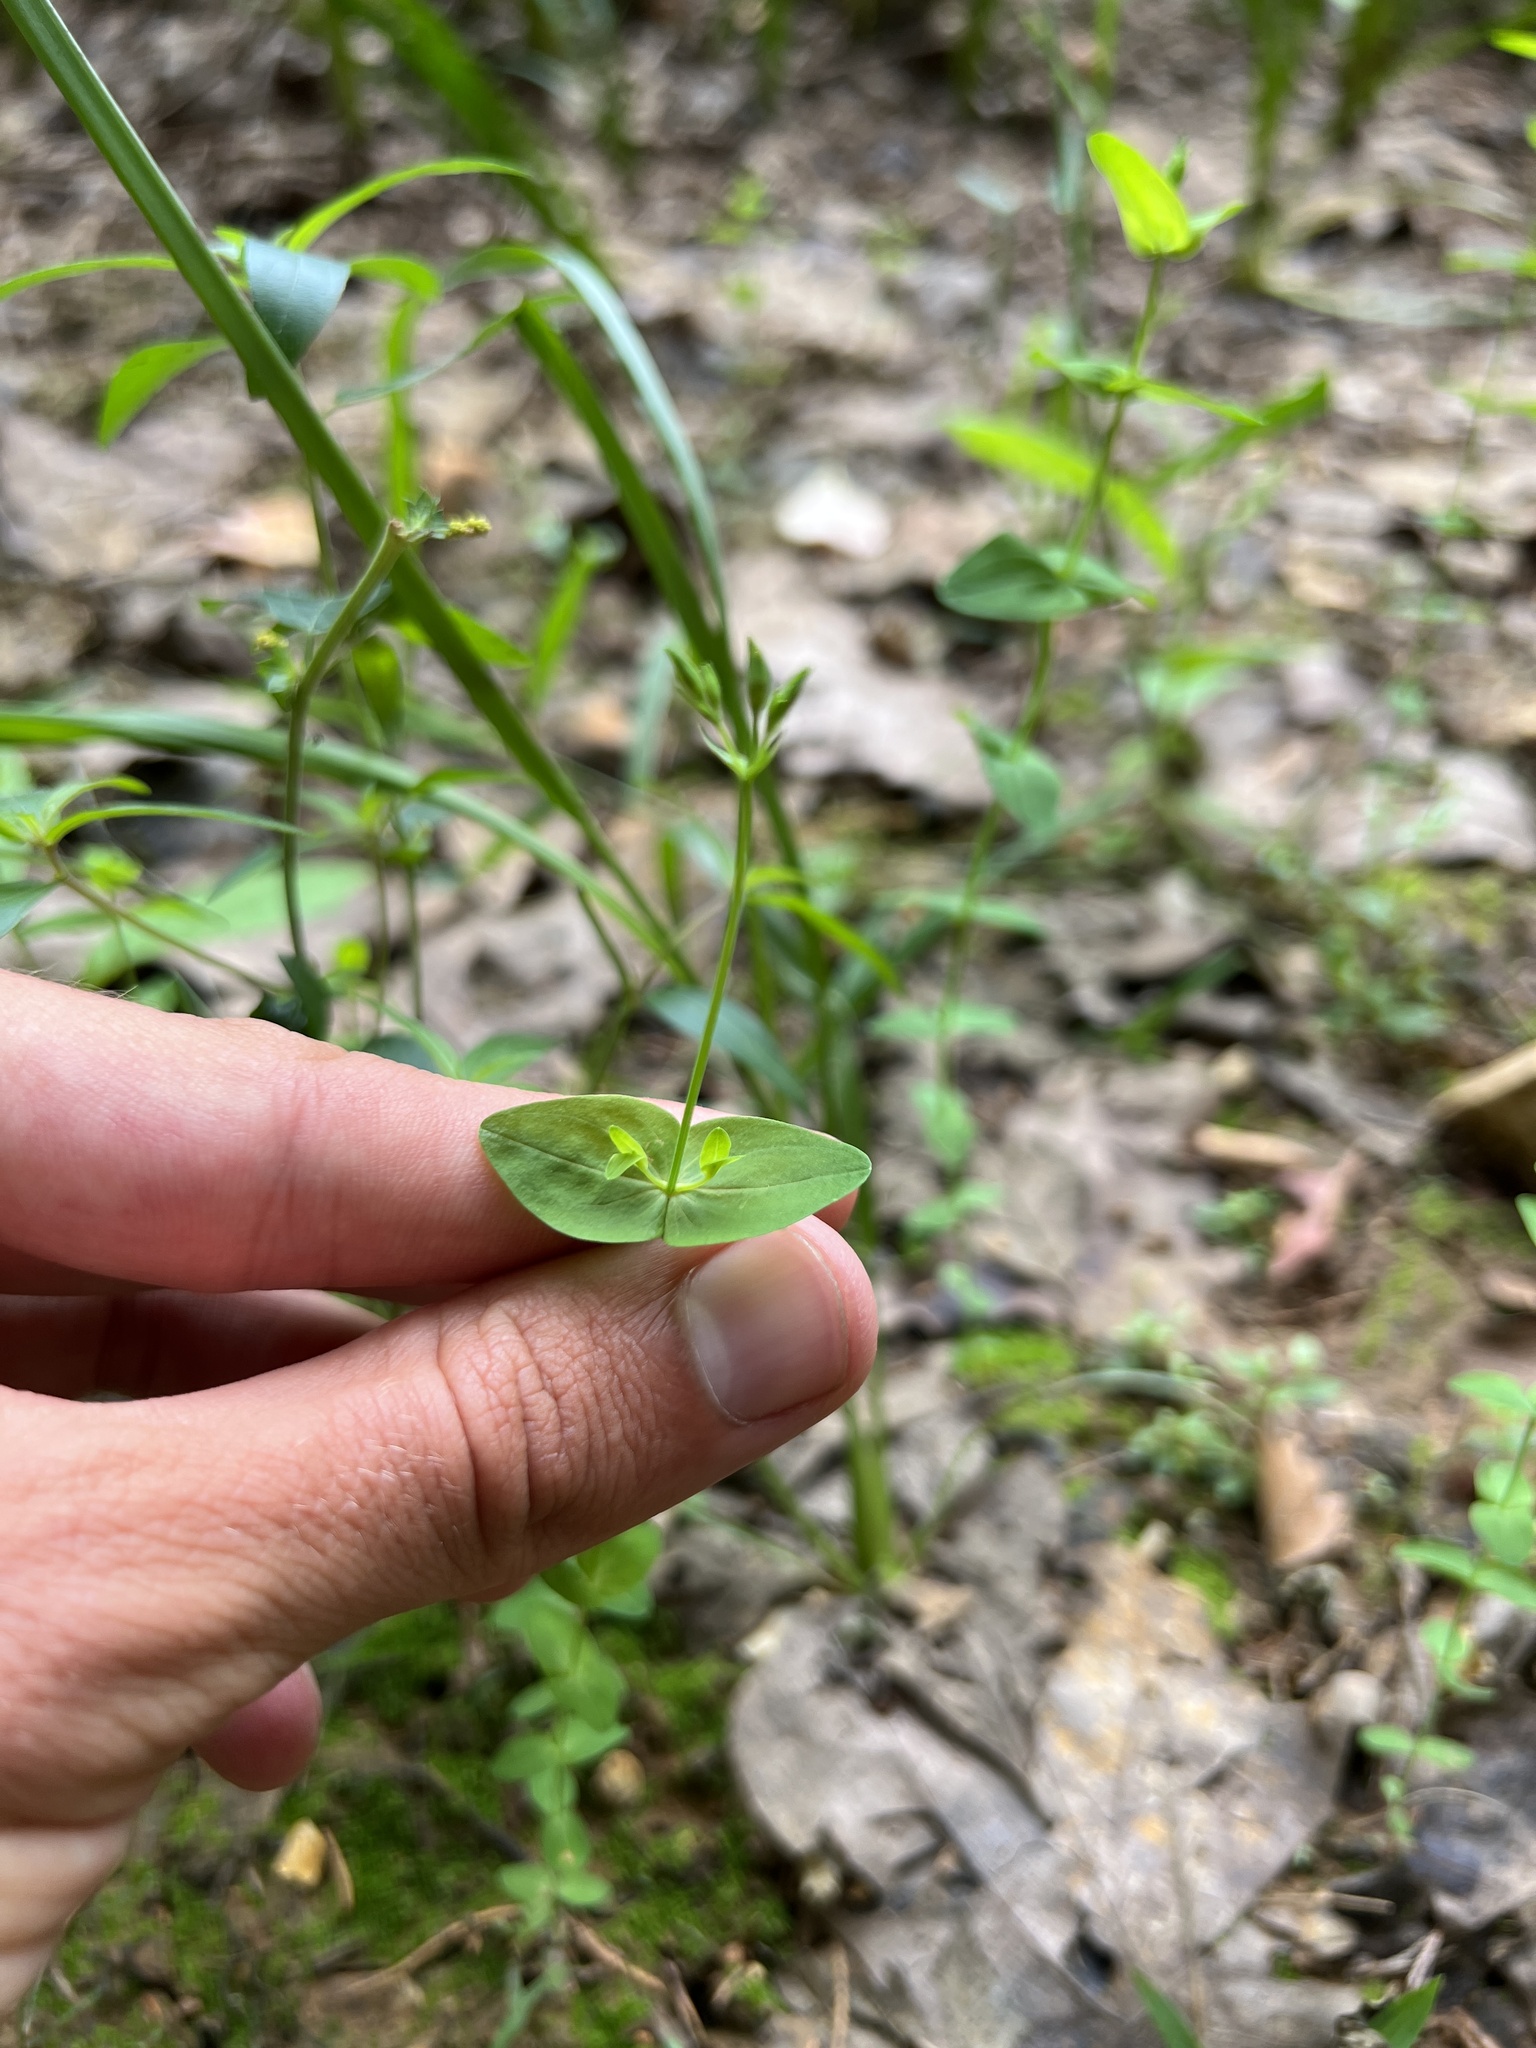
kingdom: Plantae
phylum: Tracheophyta
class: Magnoliopsida
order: Malpighiales
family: Hypericaceae
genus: Hypericum
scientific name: Hypericum mutilum
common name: Dwarf st. john's-wort
